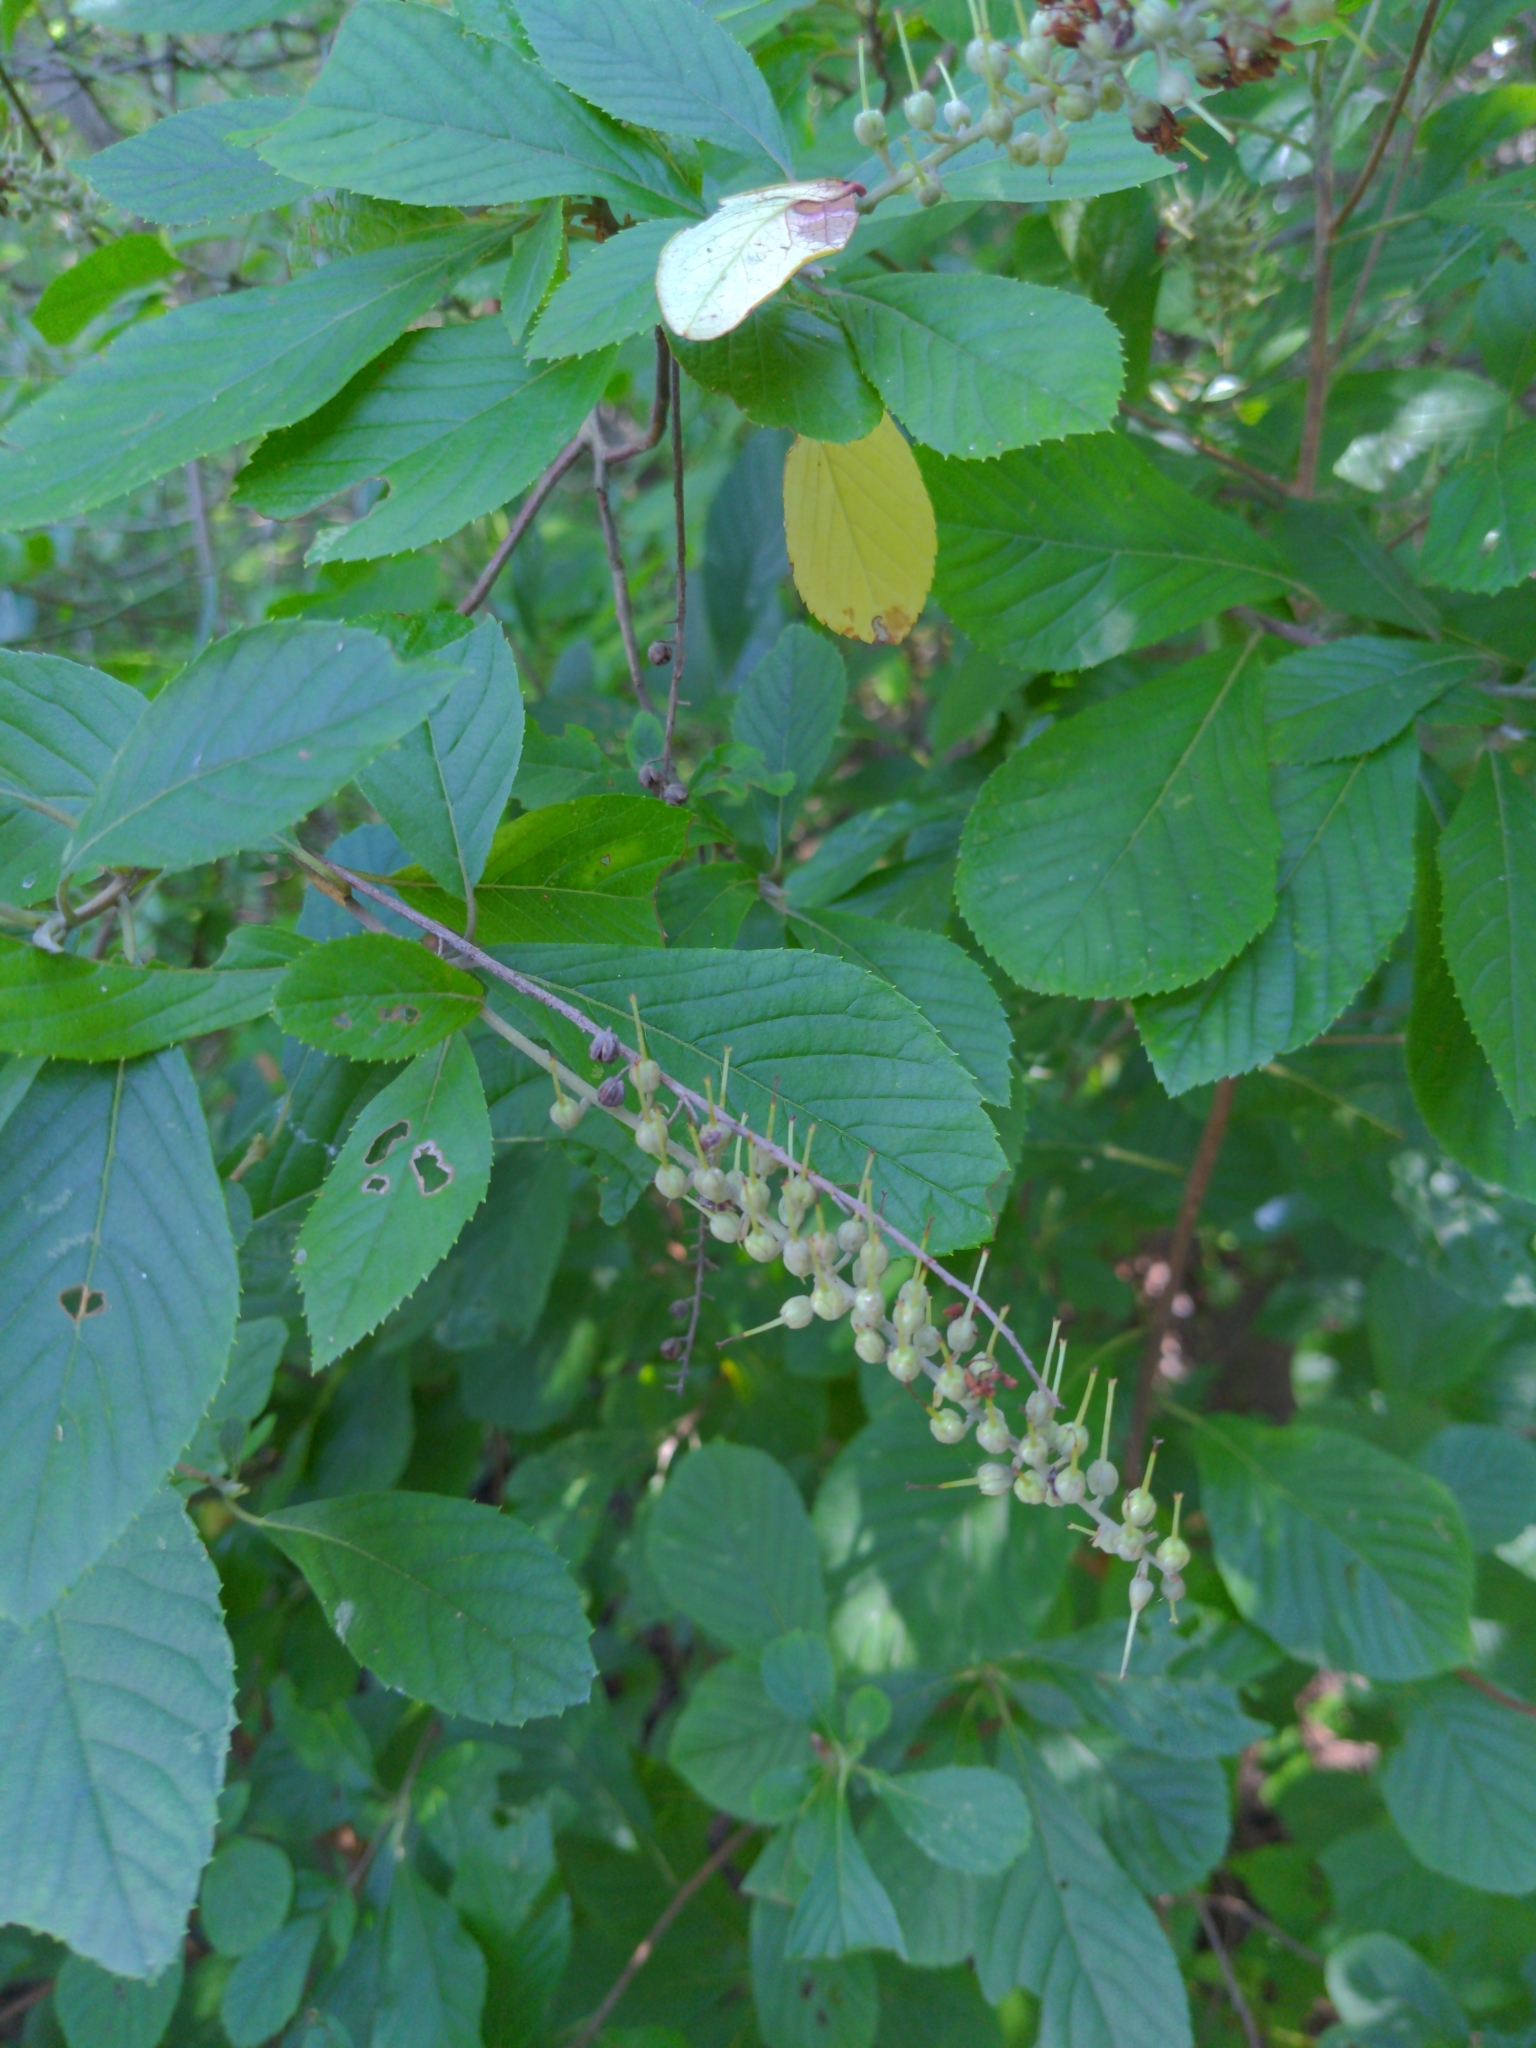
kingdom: Plantae
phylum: Tracheophyta
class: Magnoliopsida
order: Ericales
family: Clethraceae
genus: Clethra
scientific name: Clethra alnifolia
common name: Sweet pepperbush
